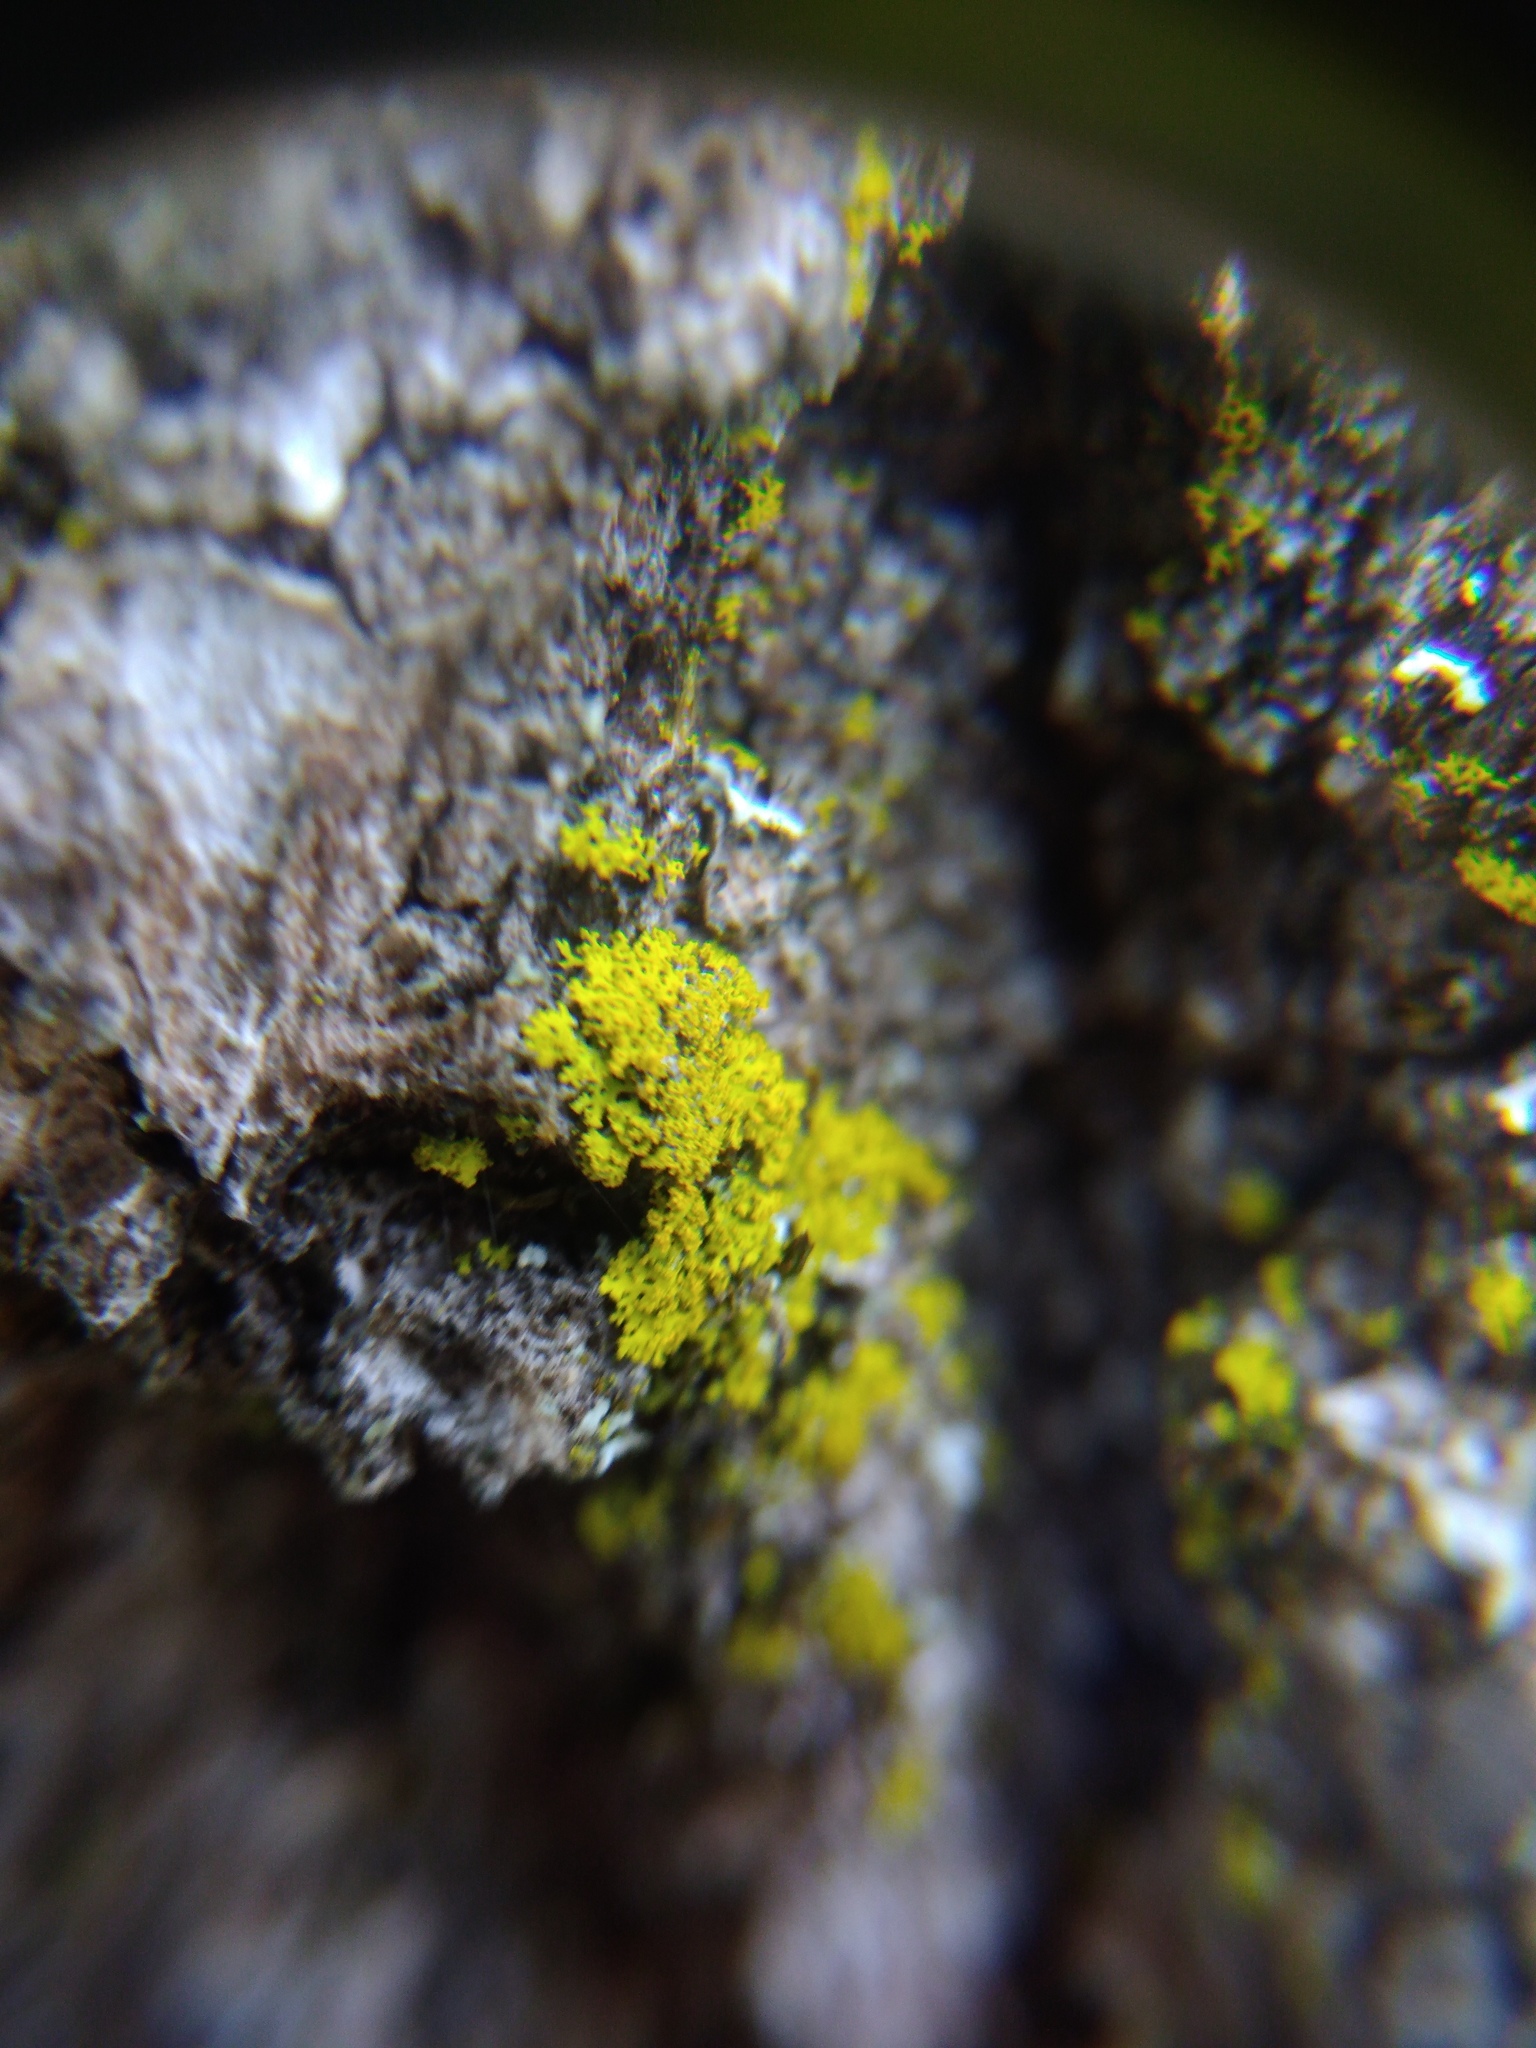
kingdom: Fungi
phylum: Ascomycota
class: Candelariomycetes
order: Candelariales
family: Candelariaceae
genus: Candelaria
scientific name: Candelaria concolor
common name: Candleflame lichen
